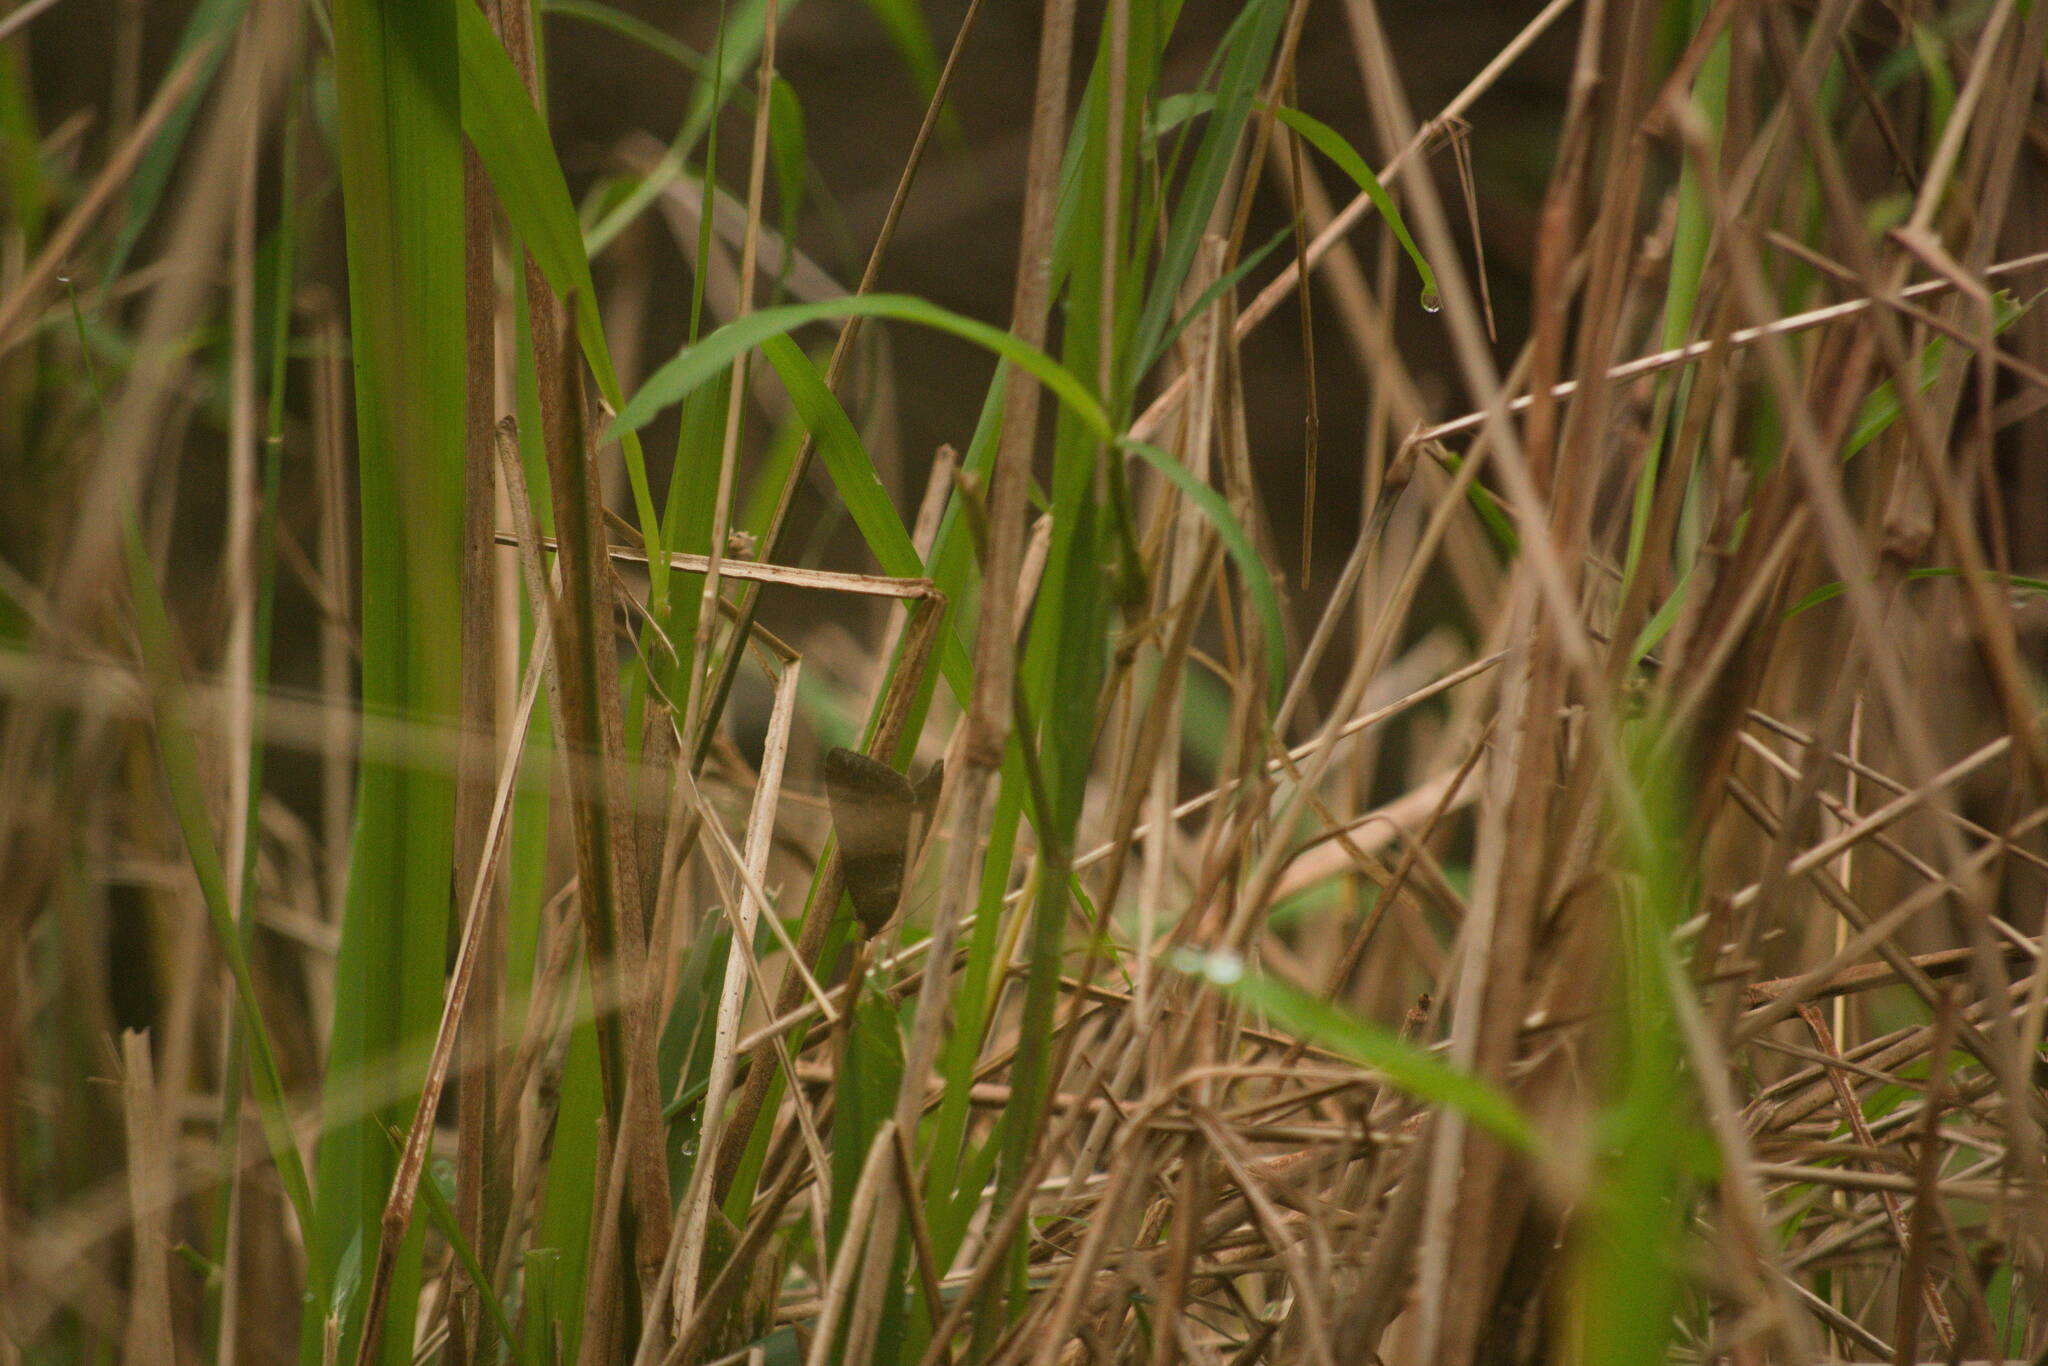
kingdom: Animalia
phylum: Arthropoda
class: Insecta
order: Lepidoptera
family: Erebidae
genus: Achaea
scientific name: Achaea janata
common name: Croton caterpillar
